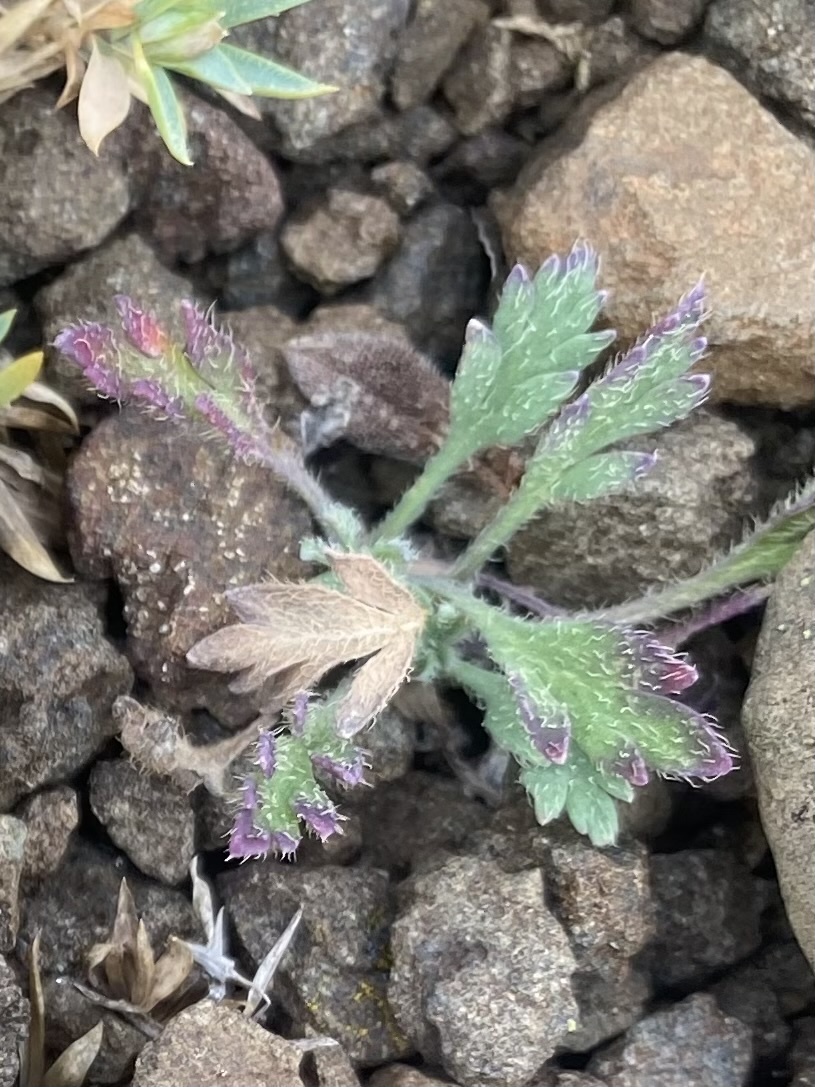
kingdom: Plantae
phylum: Tracheophyta
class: Magnoliopsida
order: Ranunculales
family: Papaveraceae
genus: Papaver
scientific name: Papaver
